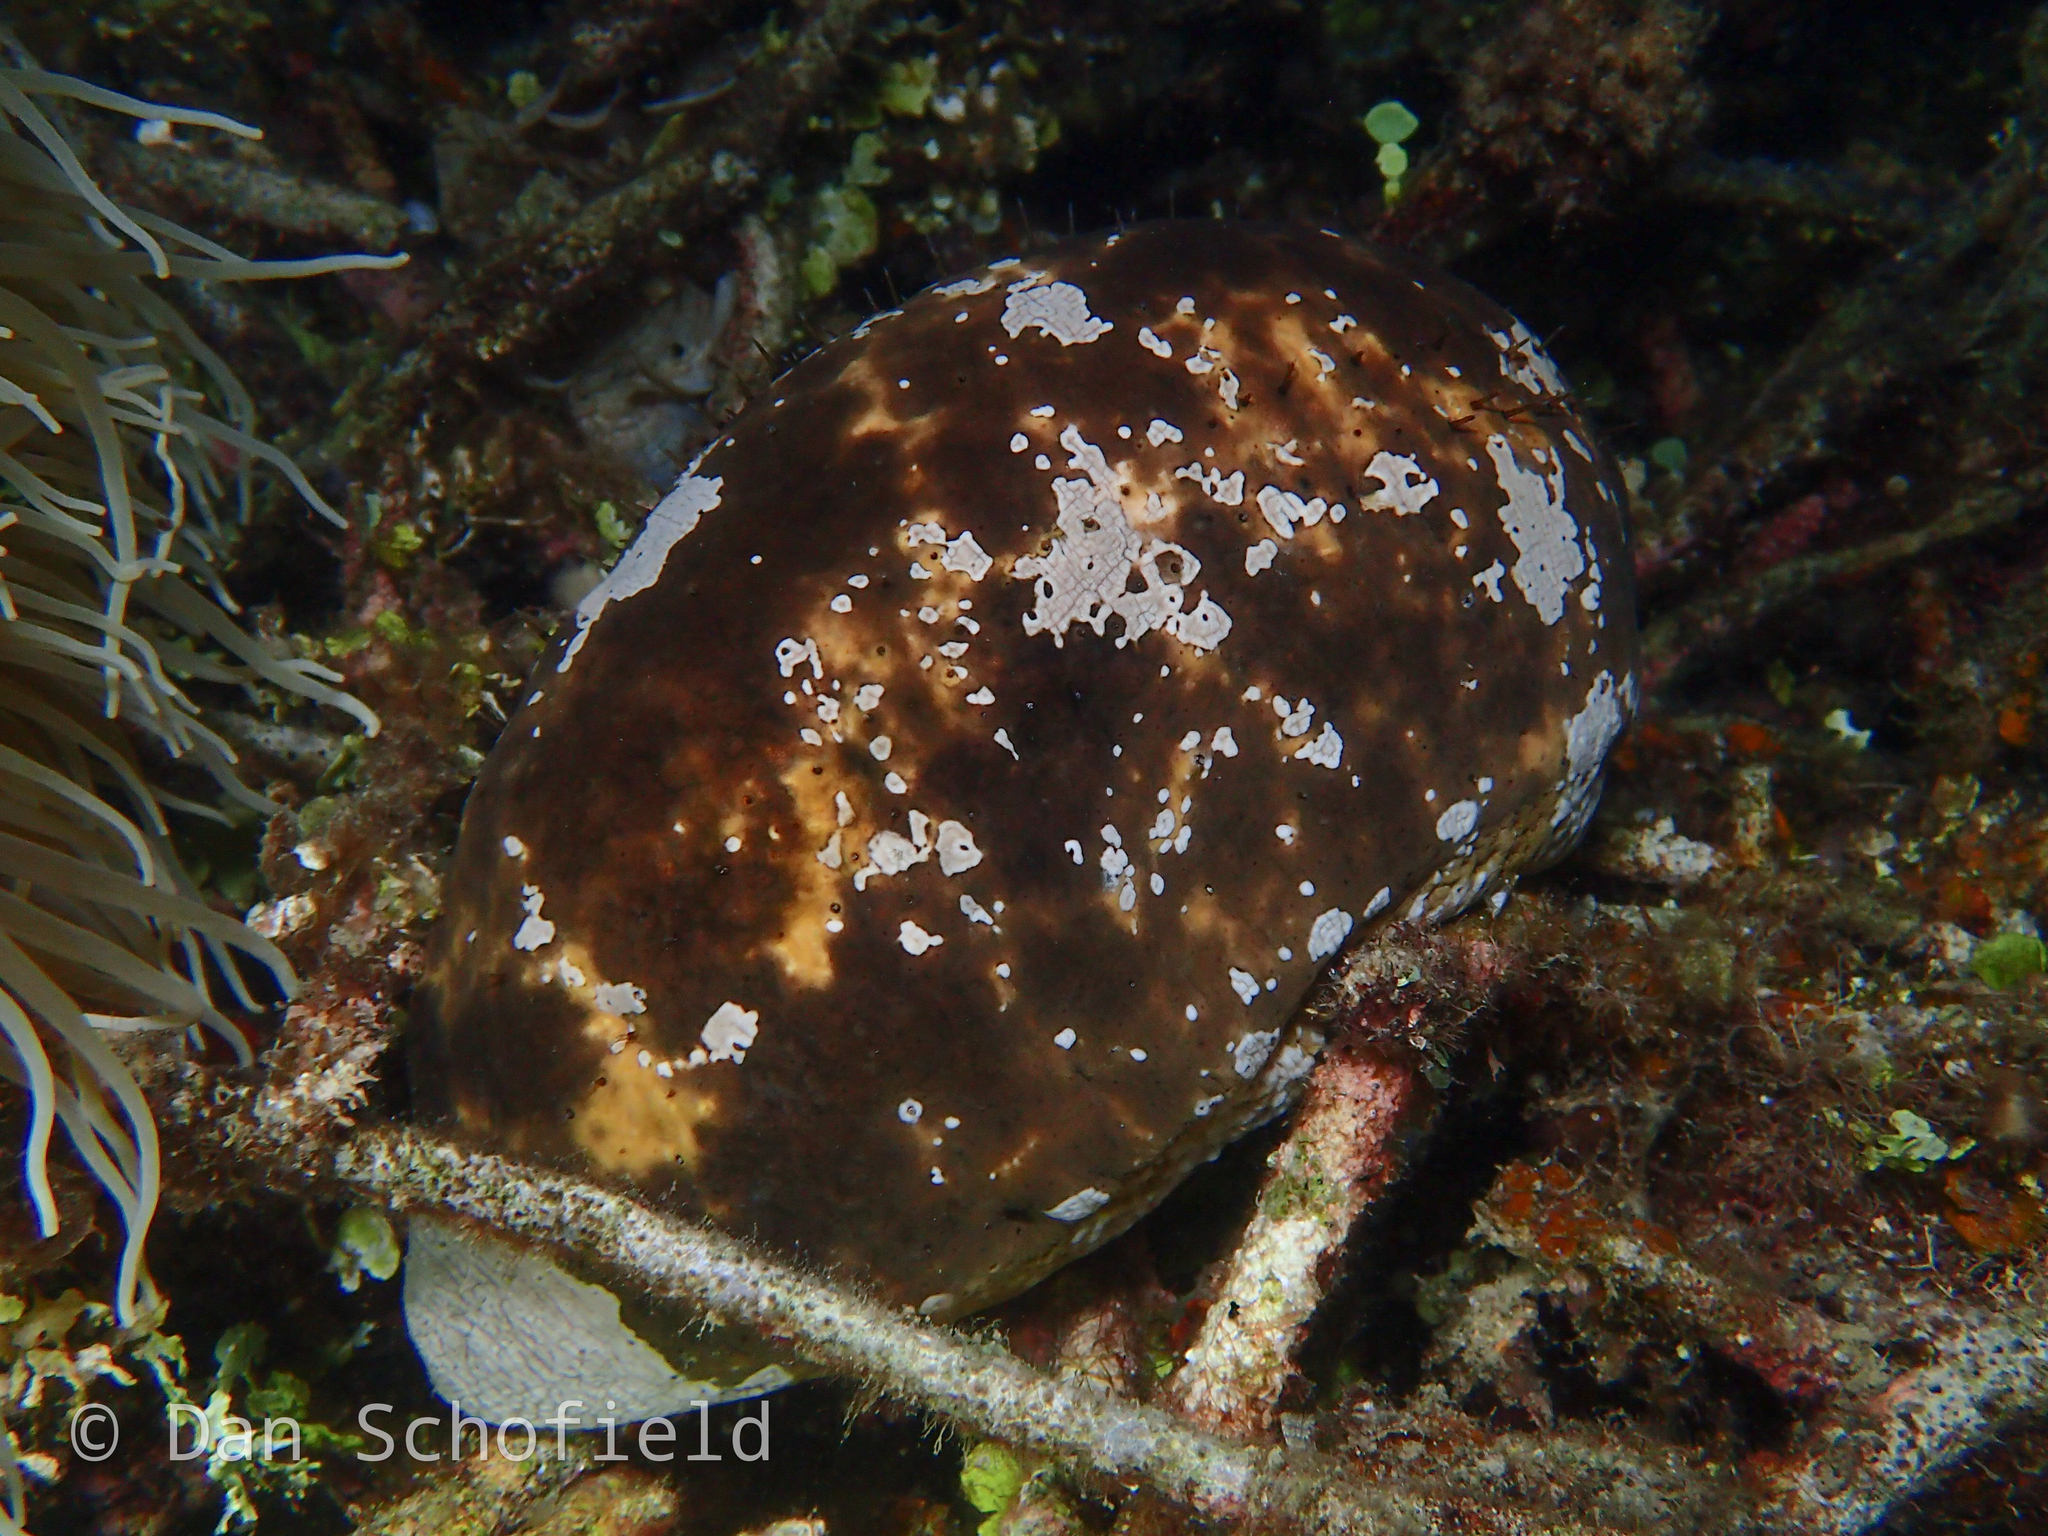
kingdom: Animalia
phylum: Echinodermata
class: Holothuroidea
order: Holothuriida
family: Holothuriidae
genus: Actinopyga
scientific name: Actinopyga lecanora
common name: Stonefish
